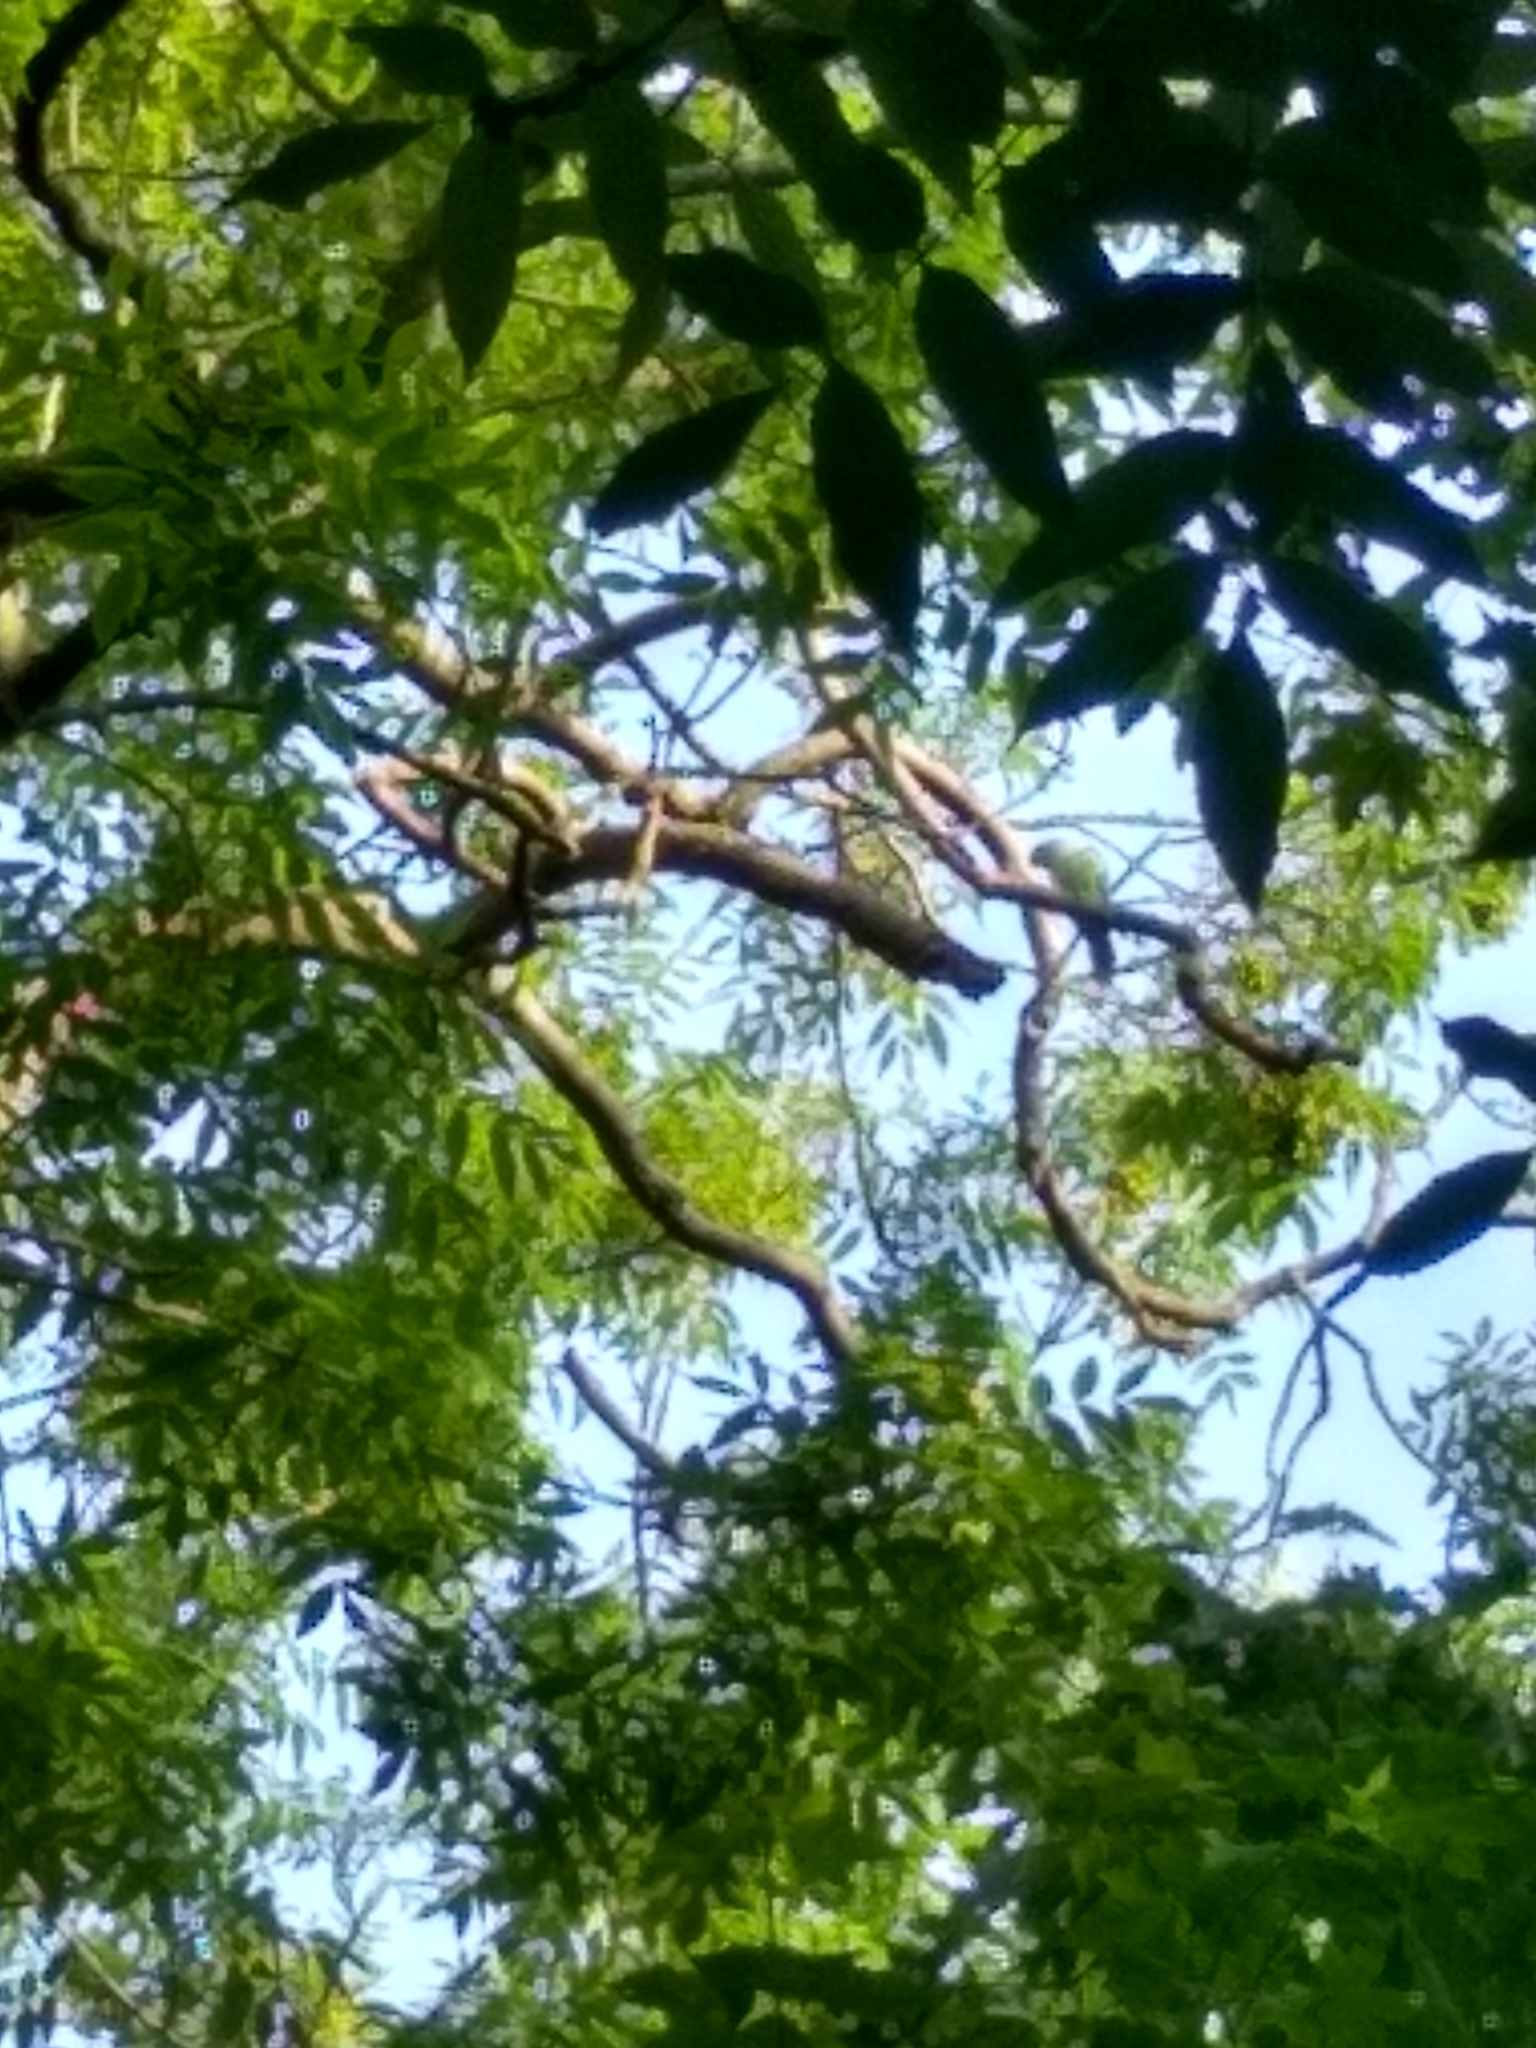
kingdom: Animalia
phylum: Chordata
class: Aves
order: Psittaciformes
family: Psittacidae
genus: Psittacula
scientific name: Psittacula krameri
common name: Rose-ringed parakeet
